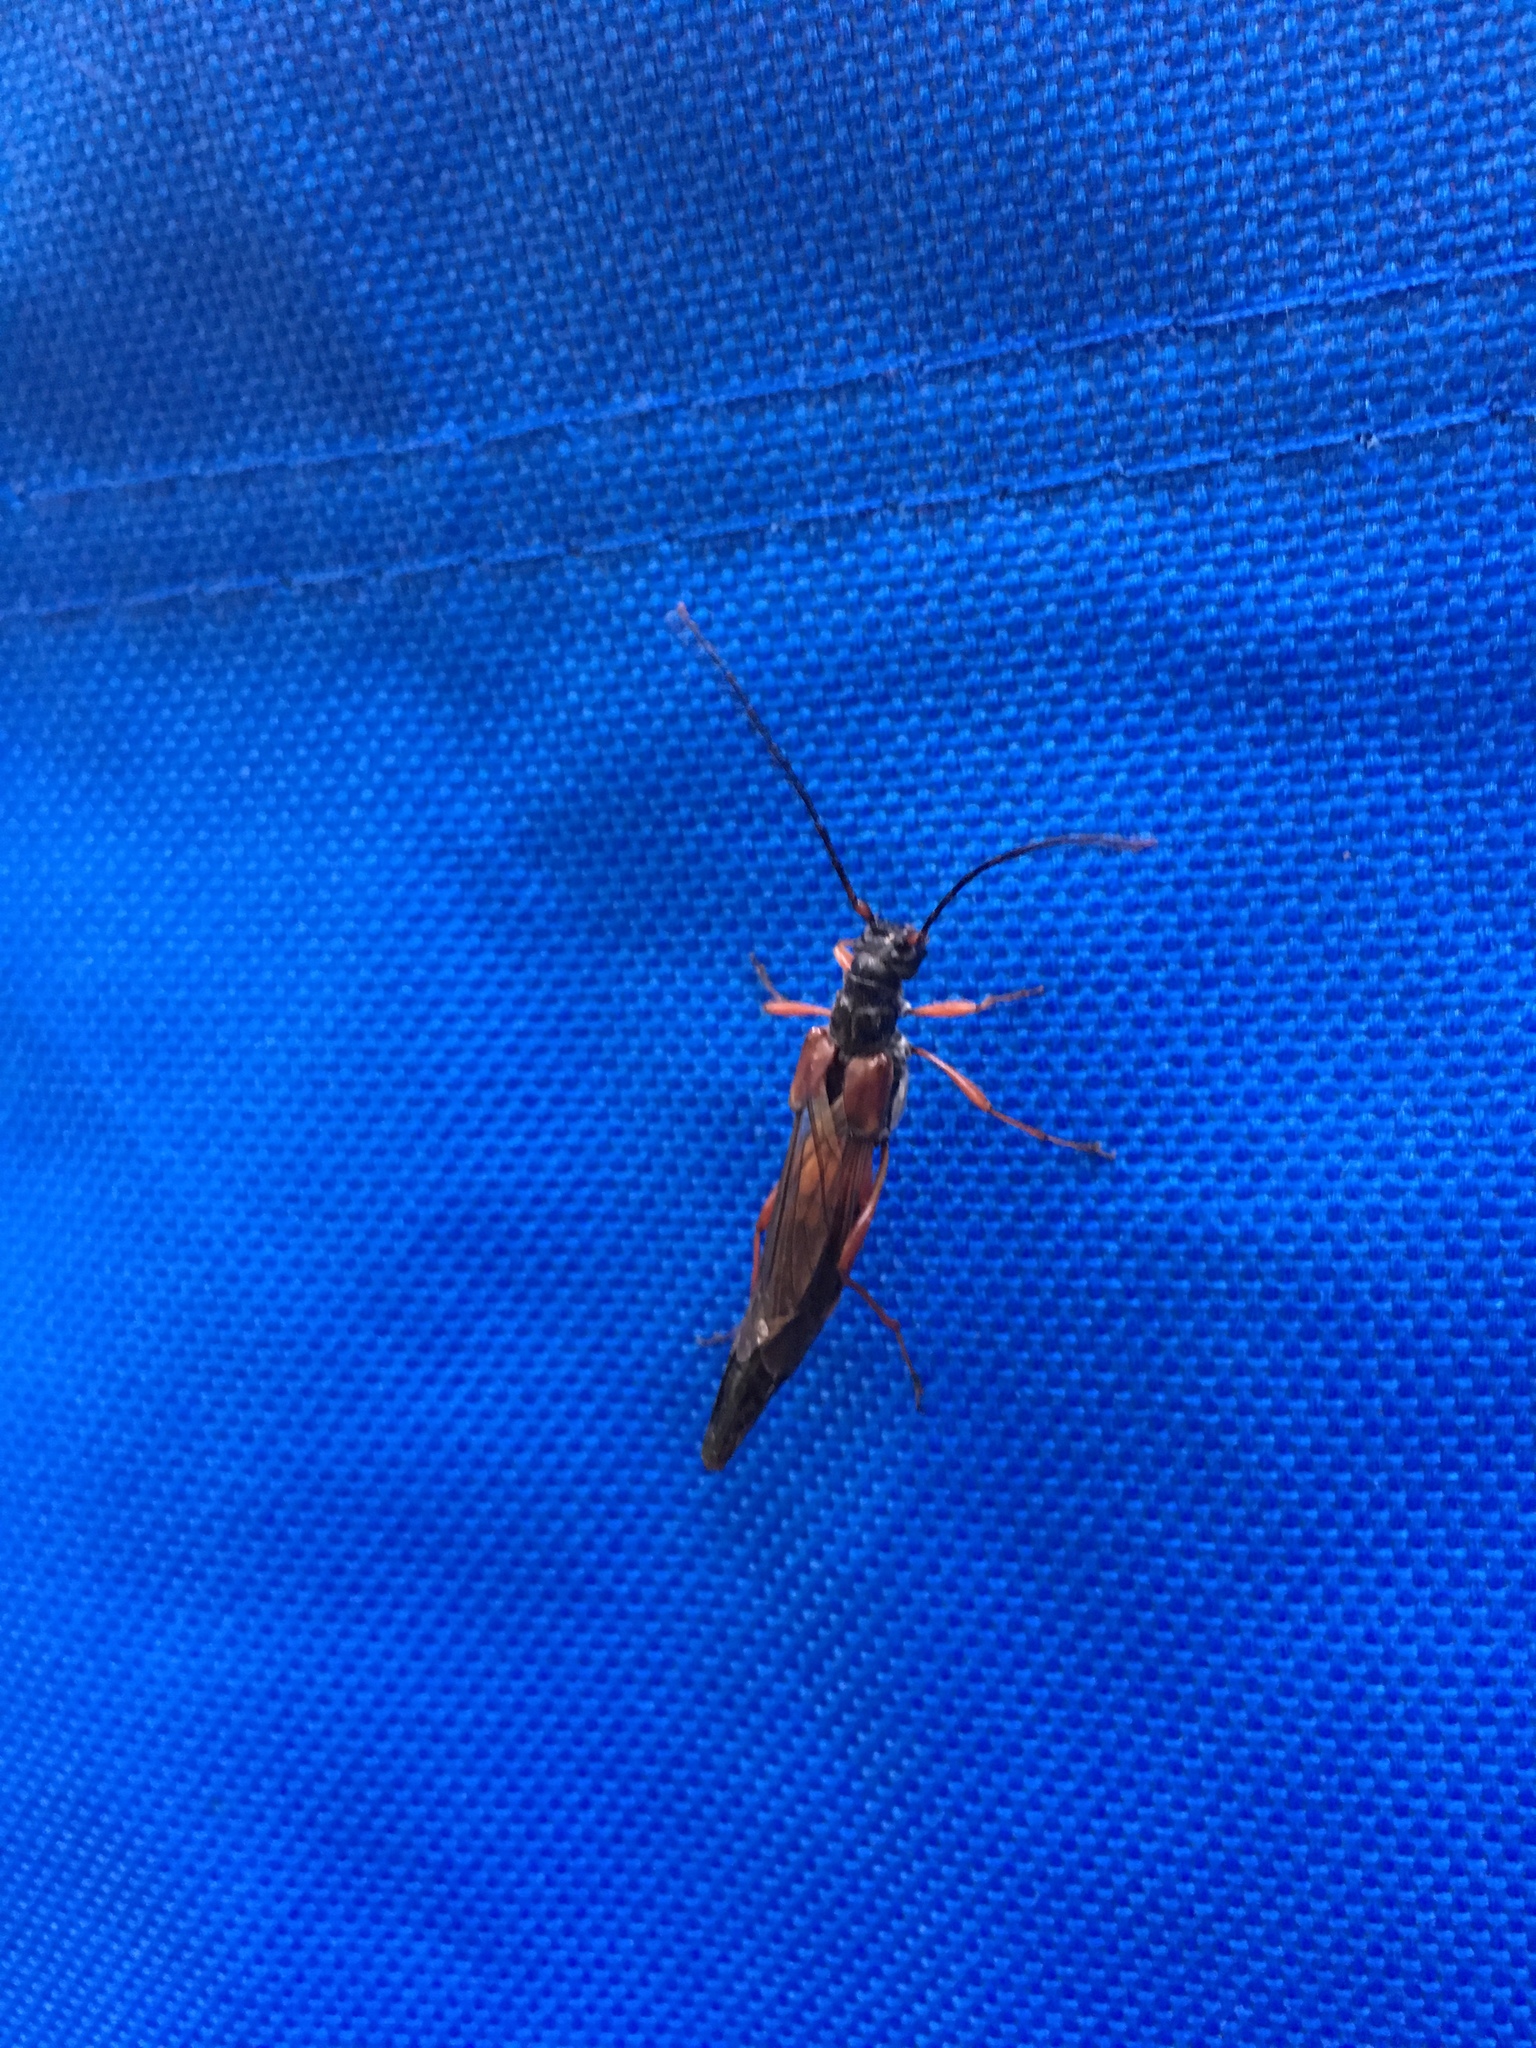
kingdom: Animalia
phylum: Arthropoda
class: Insecta
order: Coleoptera
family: Cerambycidae
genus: Necydalis
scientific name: Necydalis mellita
